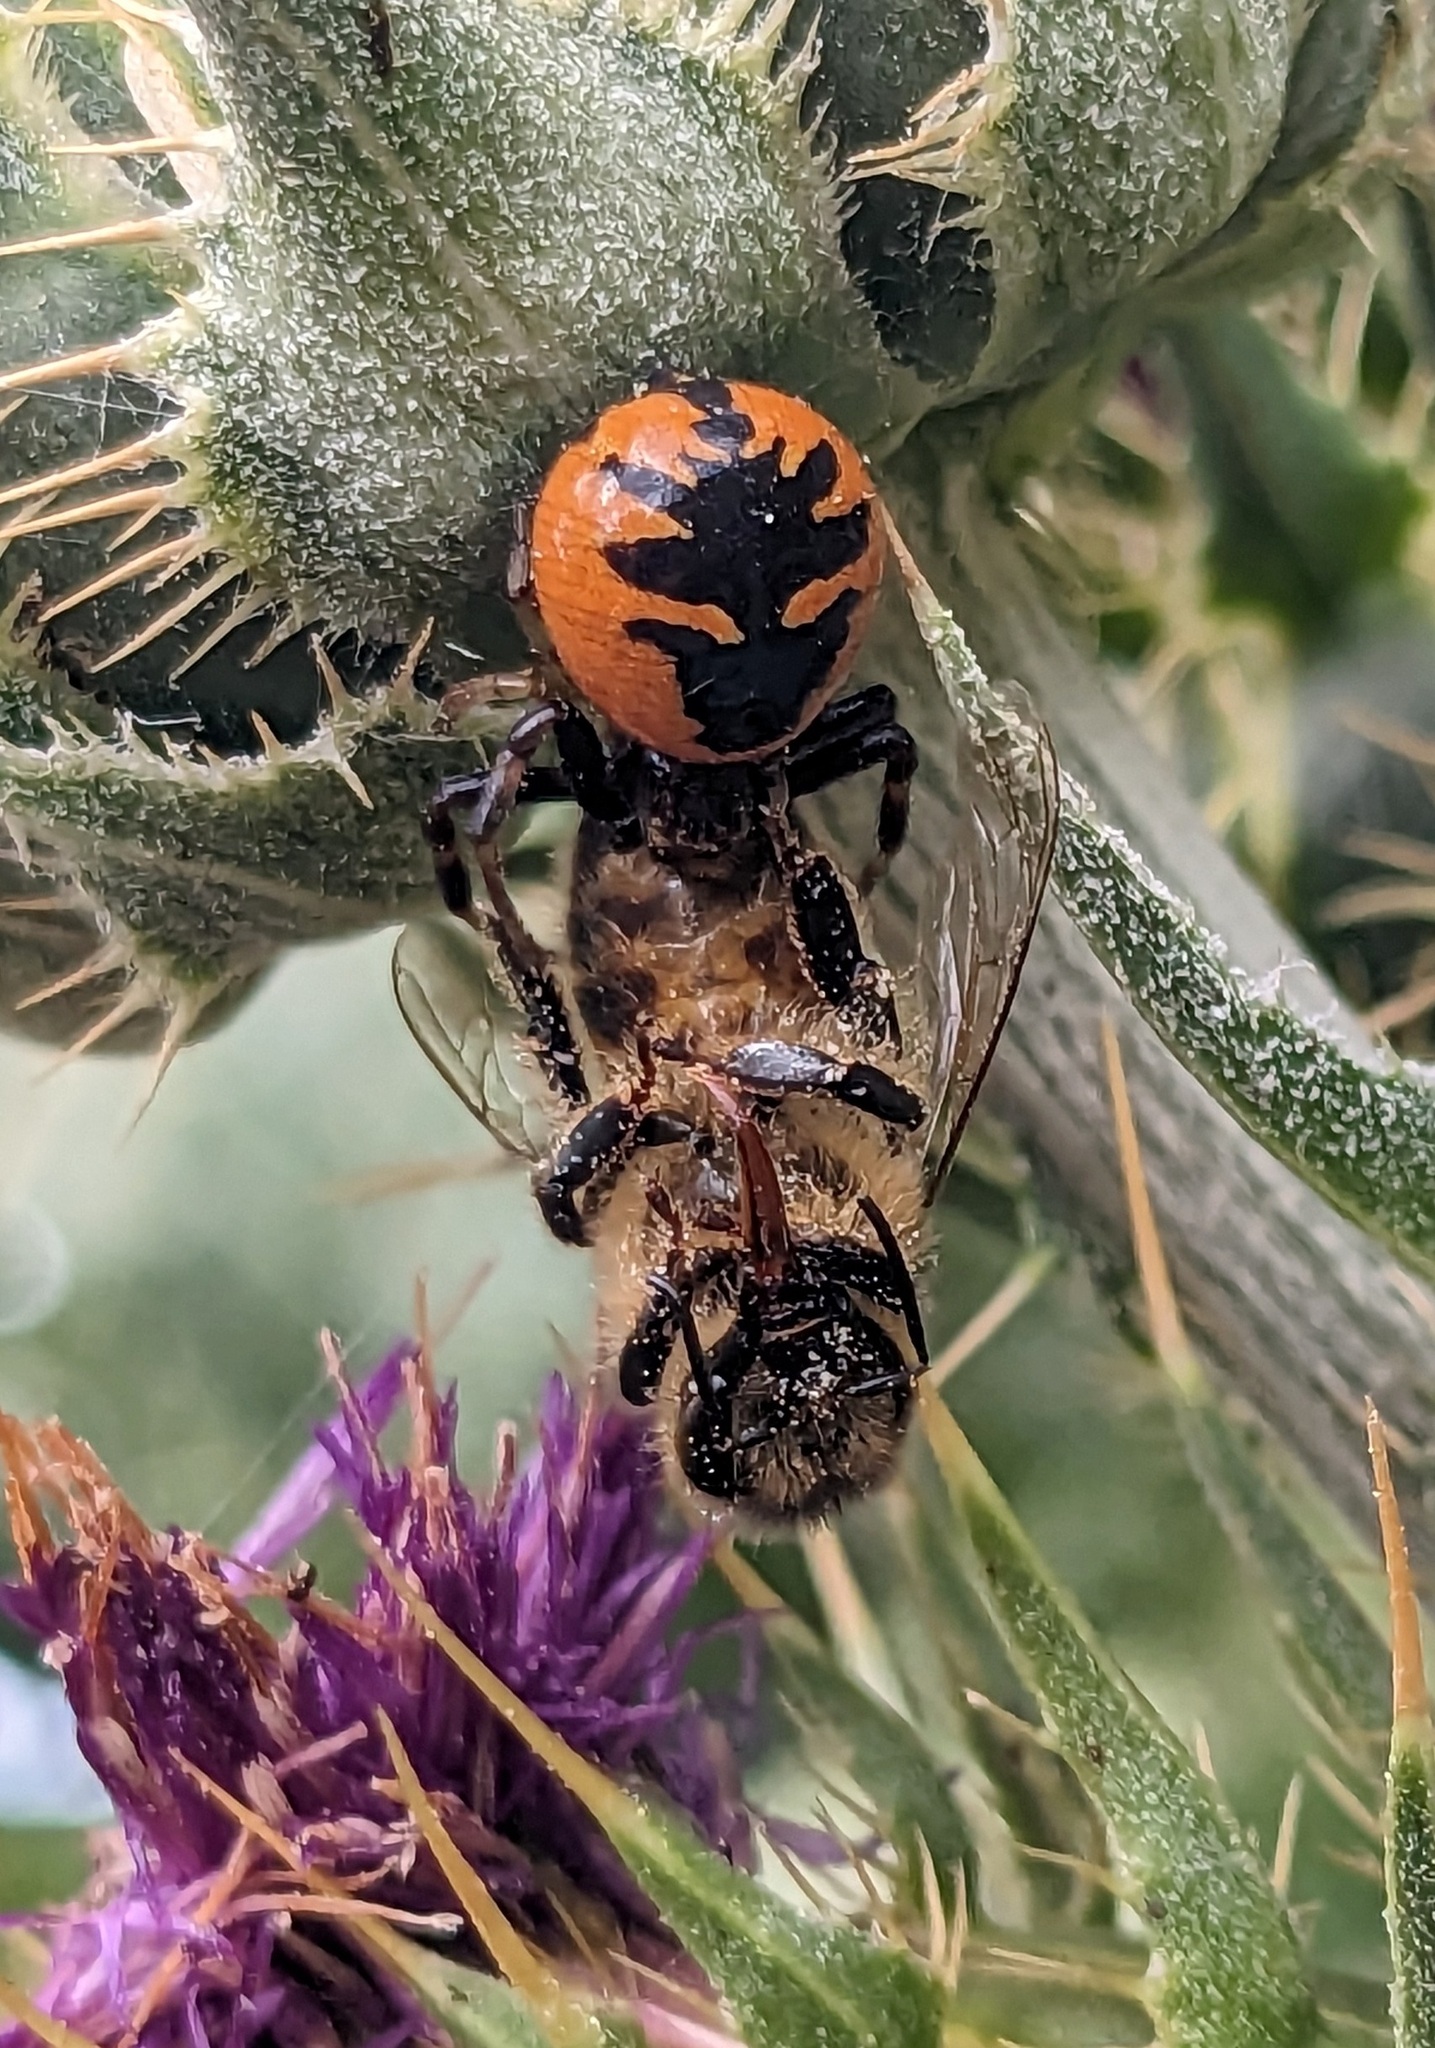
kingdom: Animalia
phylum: Arthropoda
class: Arachnida
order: Araneae
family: Thomisidae
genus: Synema
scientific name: Synema globosum
